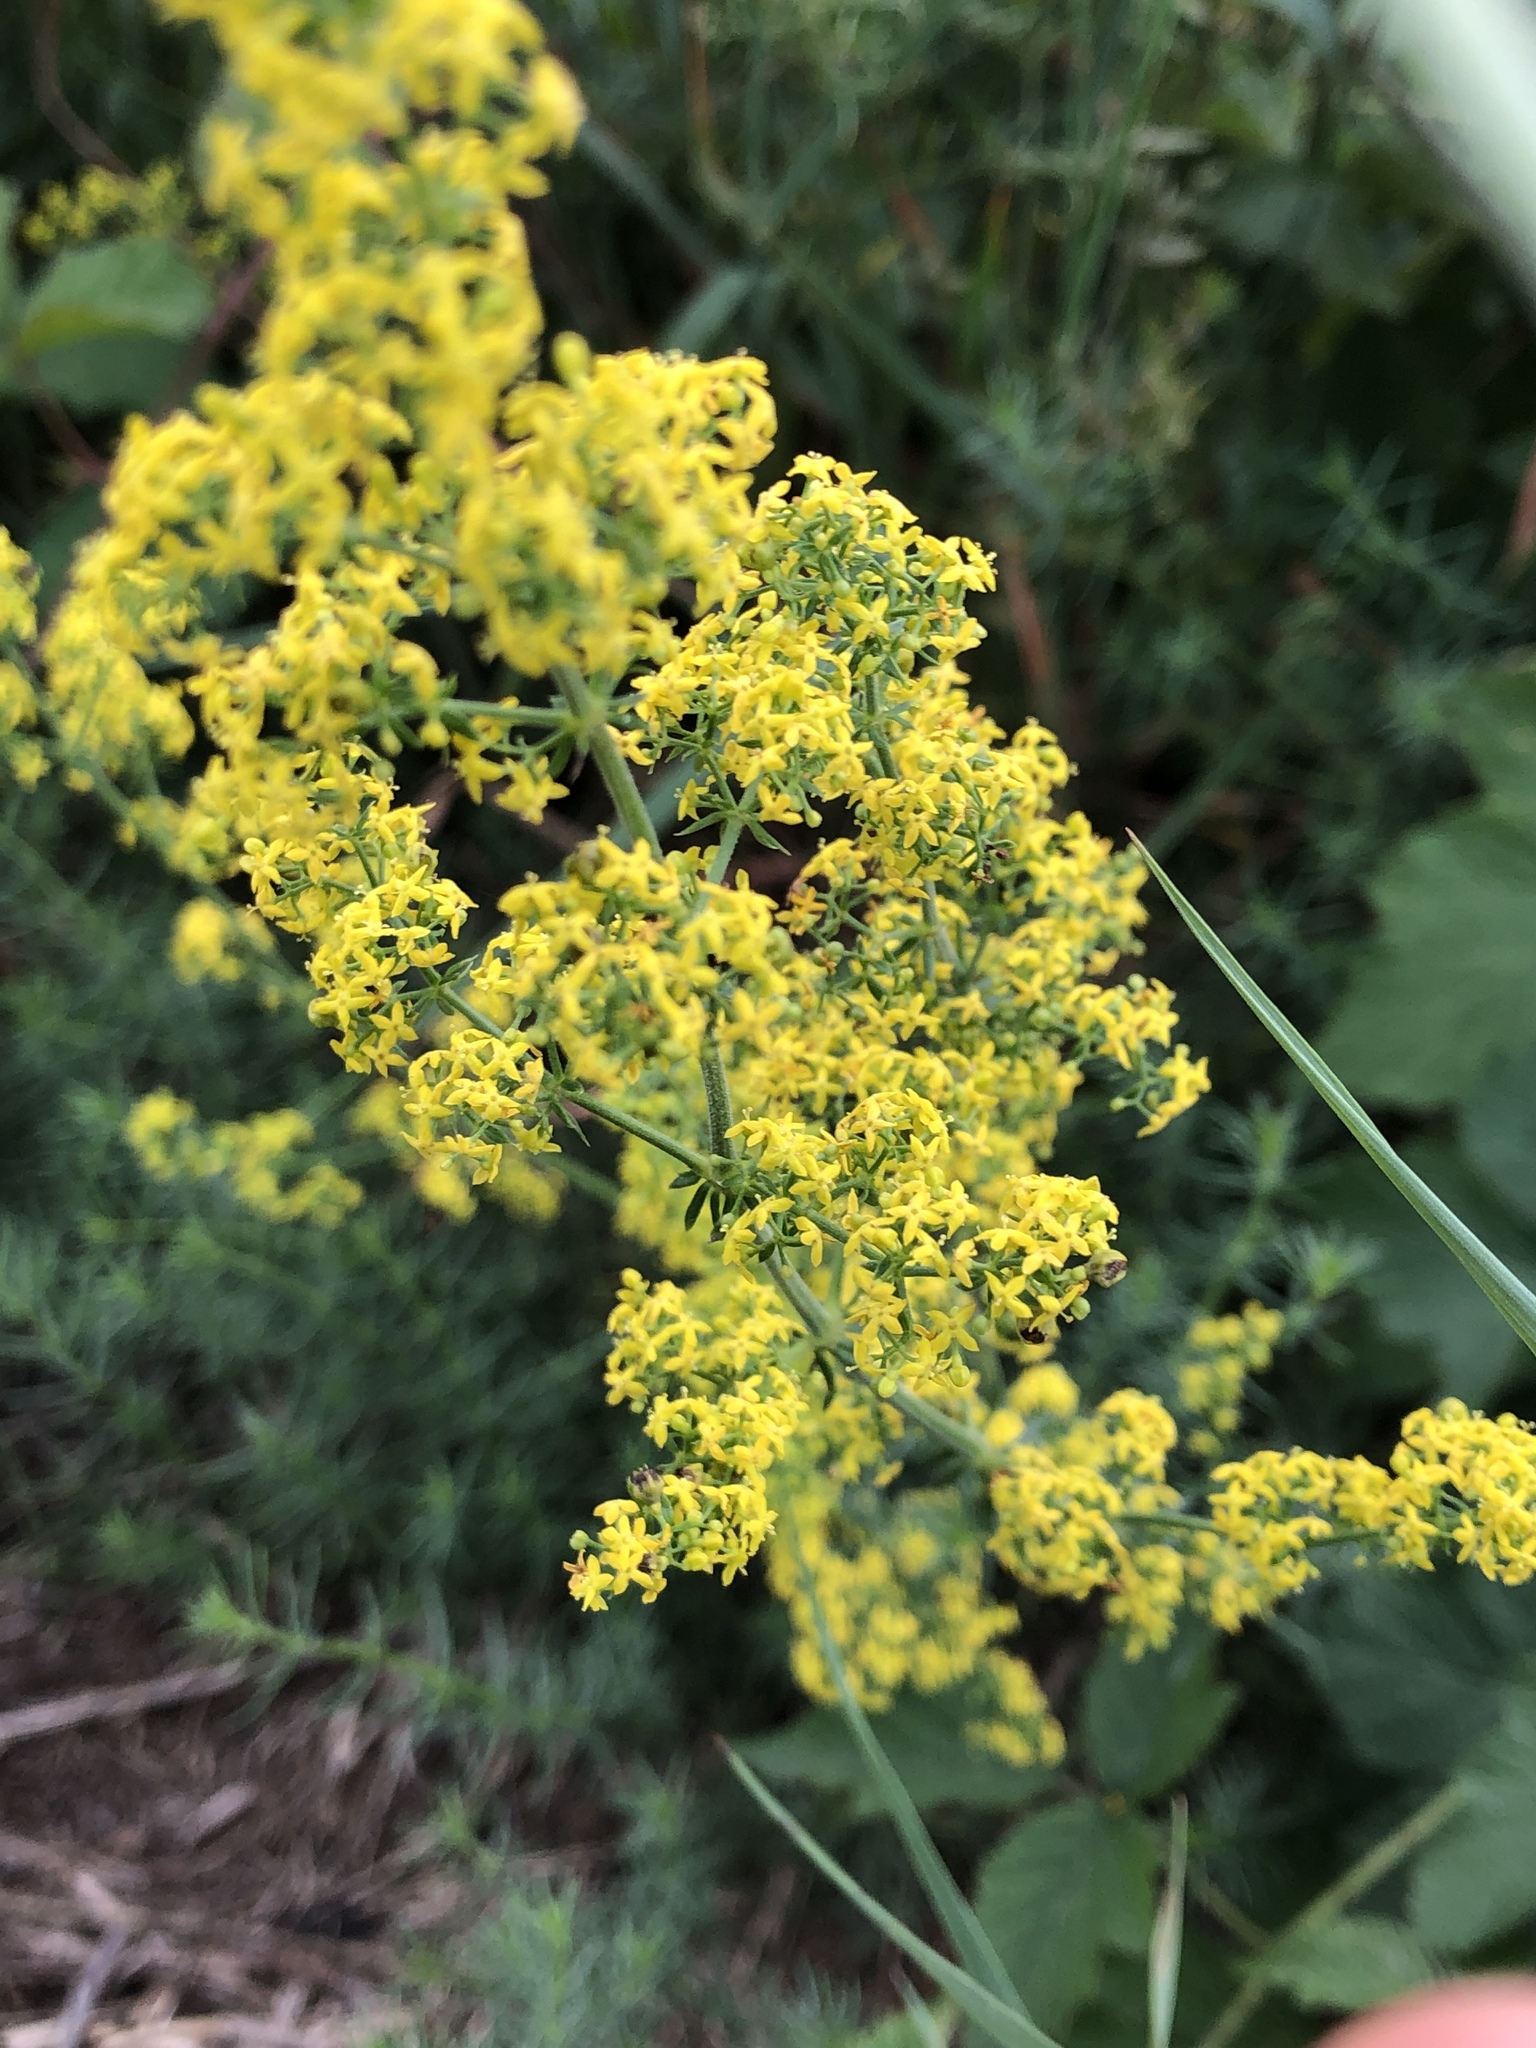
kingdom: Plantae
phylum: Tracheophyta
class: Magnoliopsida
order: Gentianales
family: Rubiaceae
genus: Galium
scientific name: Galium verum
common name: Lady's bedstraw
